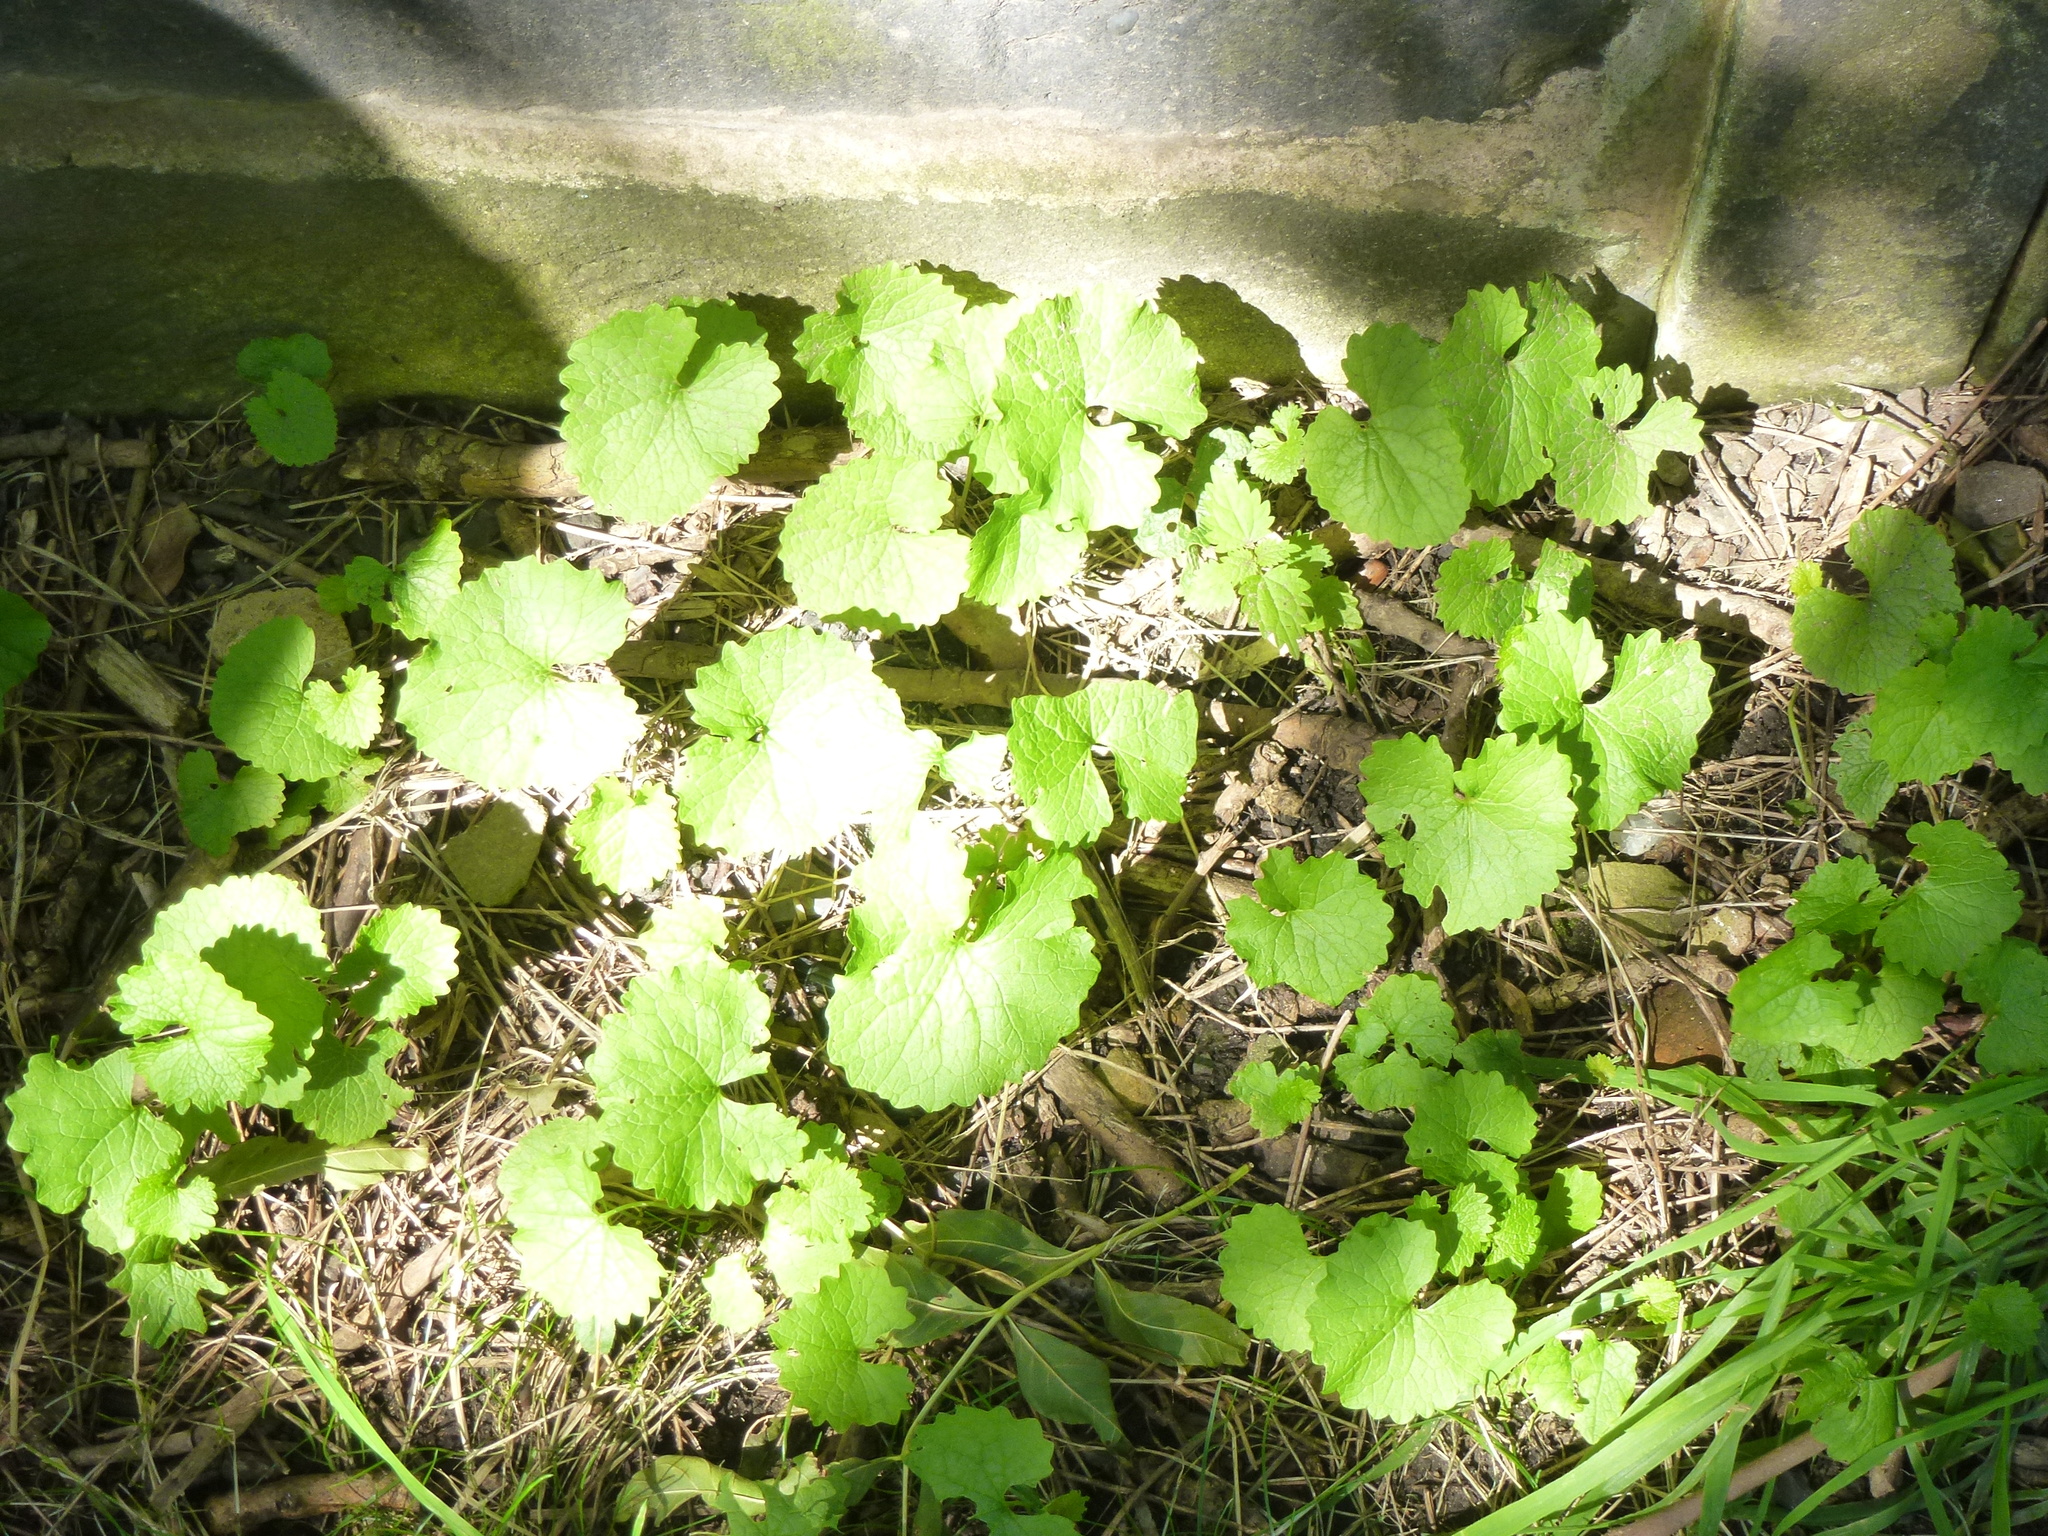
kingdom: Plantae
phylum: Tracheophyta
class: Magnoliopsida
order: Brassicales
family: Brassicaceae
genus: Alliaria
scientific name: Alliaria petiolata
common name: Garlic mustard
